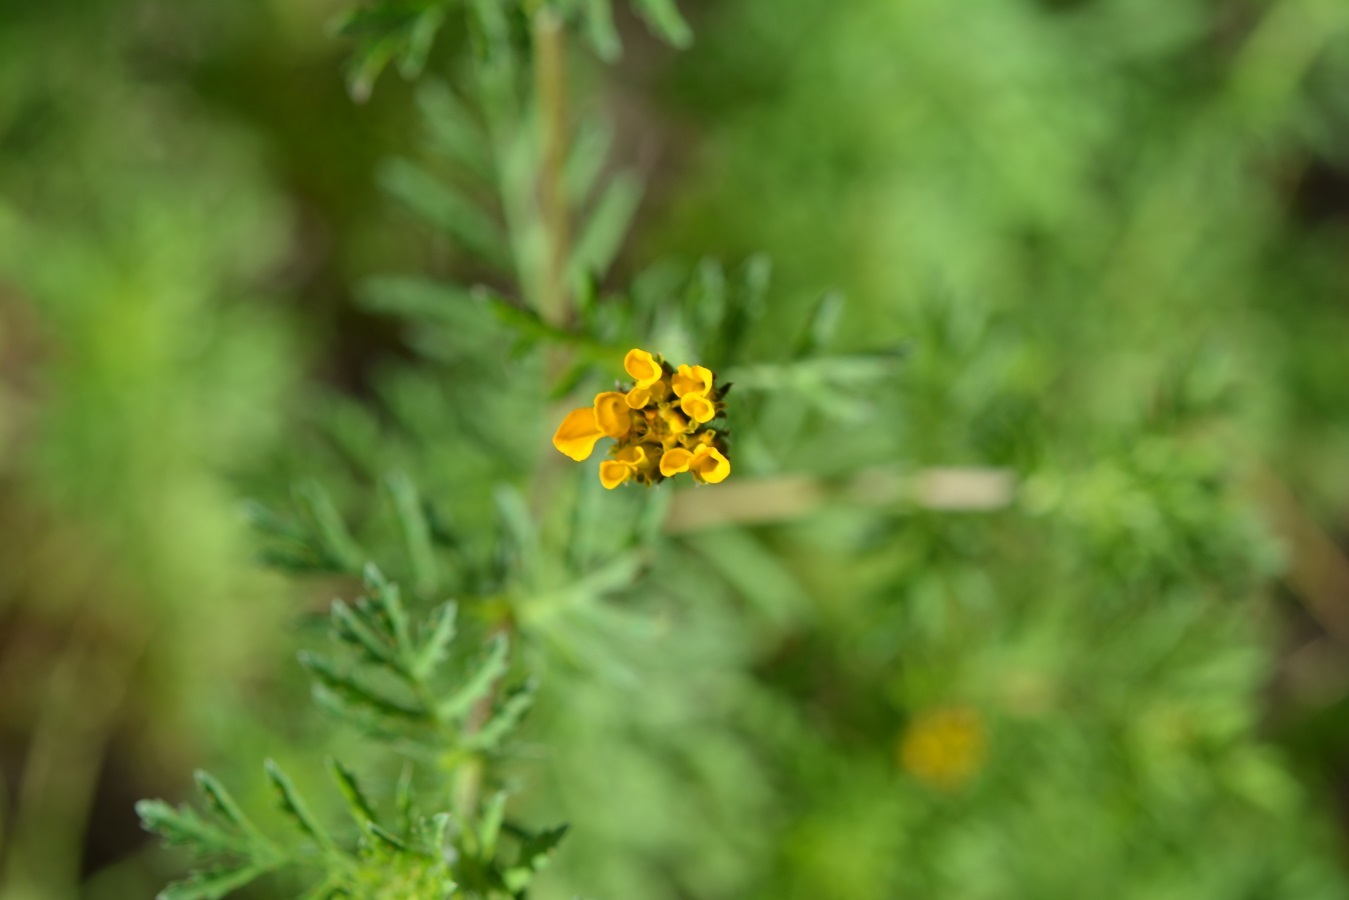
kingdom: Plantae
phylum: Tracheophyta
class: Magnoliopsida
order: Asterales
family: Asteraceae
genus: Dyssodia
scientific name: Dyssodia decipiens
